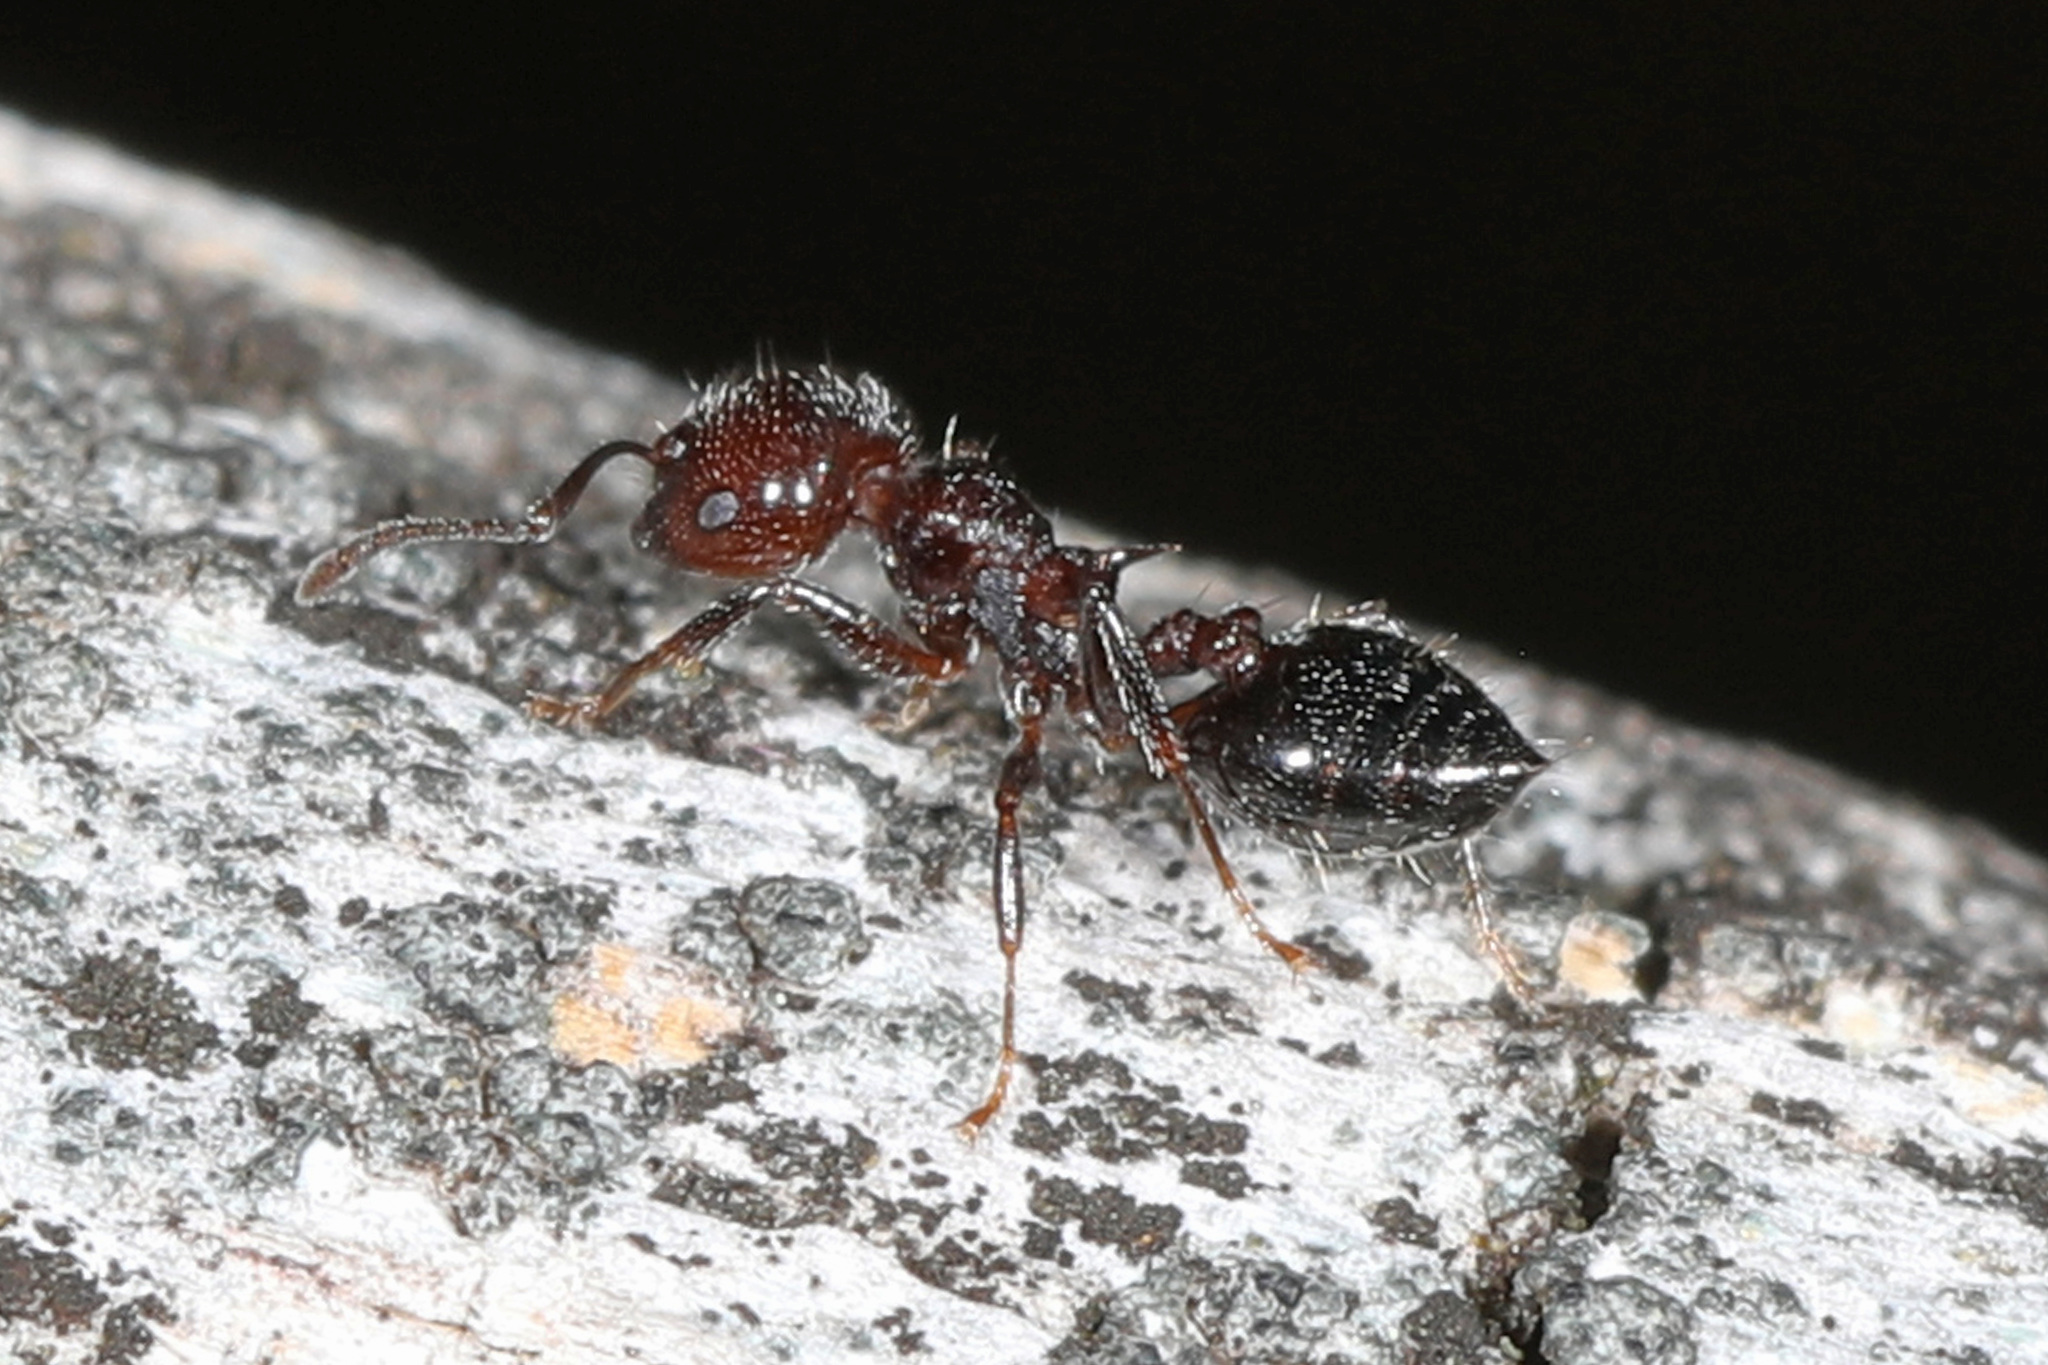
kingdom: Animalia
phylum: Arthropoda
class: Insecta
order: Hymenoptera
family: Formicidae
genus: Crematogaster
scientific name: Crematogaster pilosa
